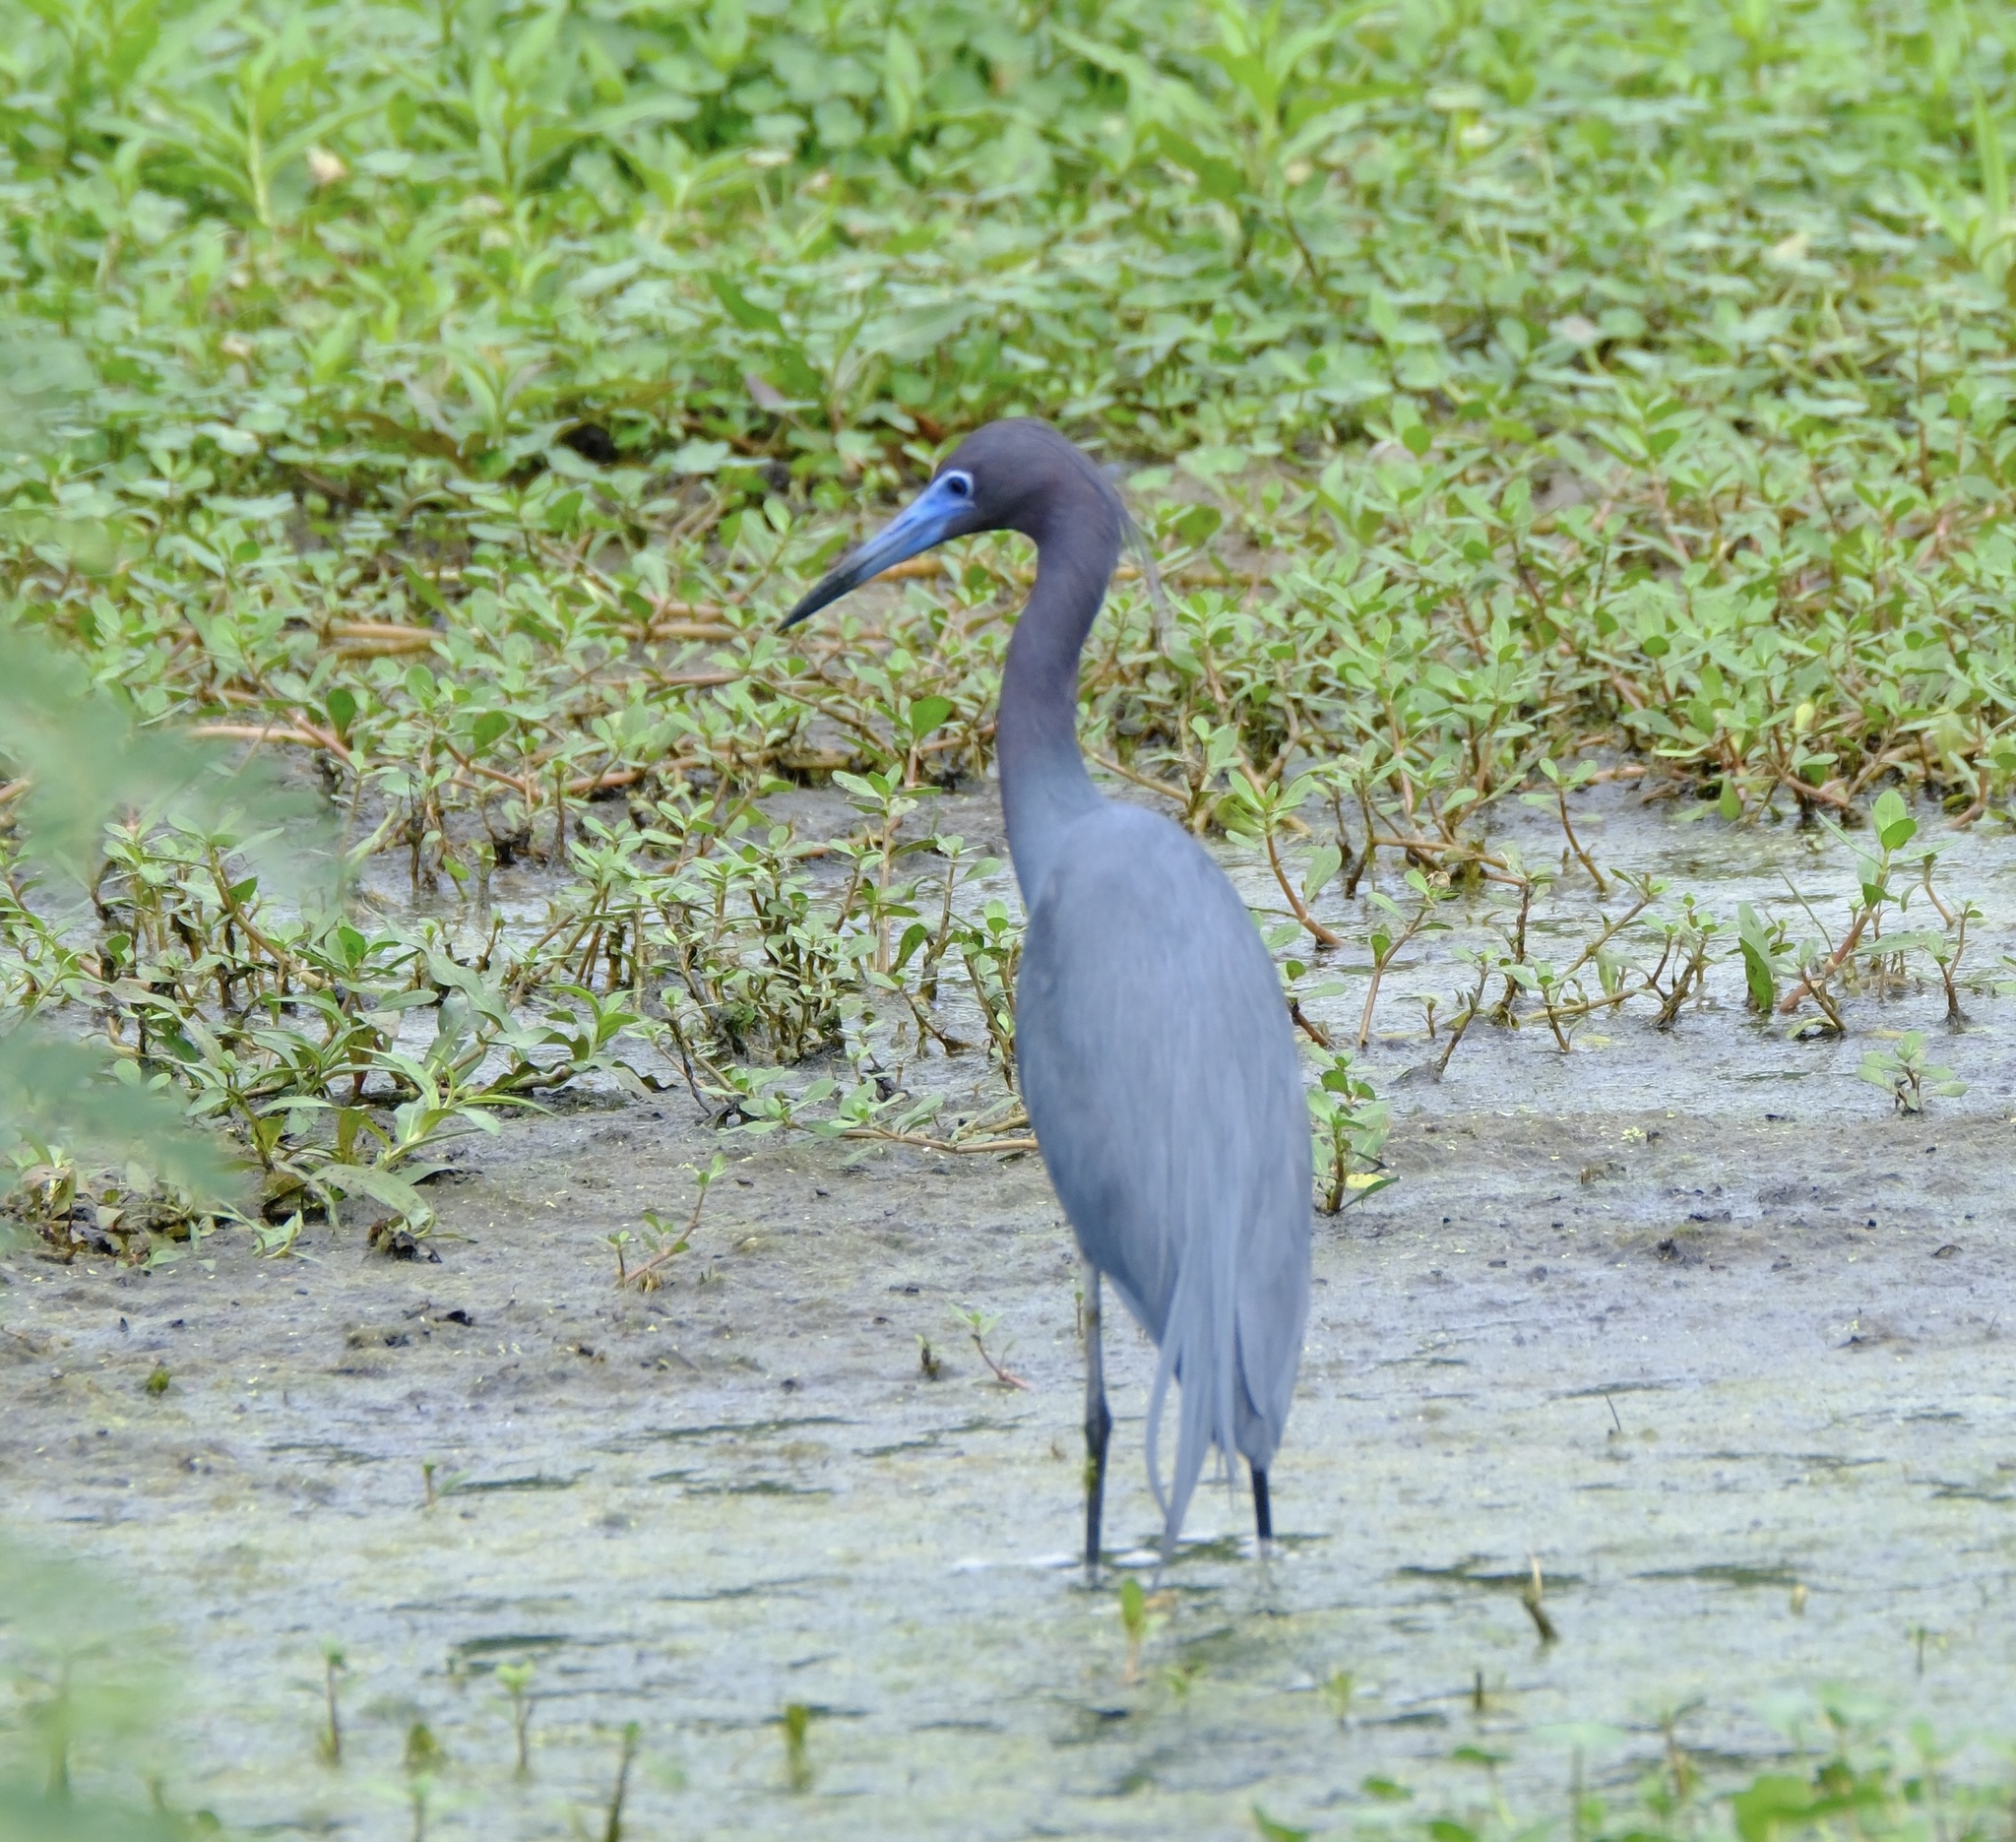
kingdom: Animalia
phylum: Chordata
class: Aves
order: Pelecaniformes
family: Ardeidae
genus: Egretta
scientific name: Egretta caerulea
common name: Little blue heron
